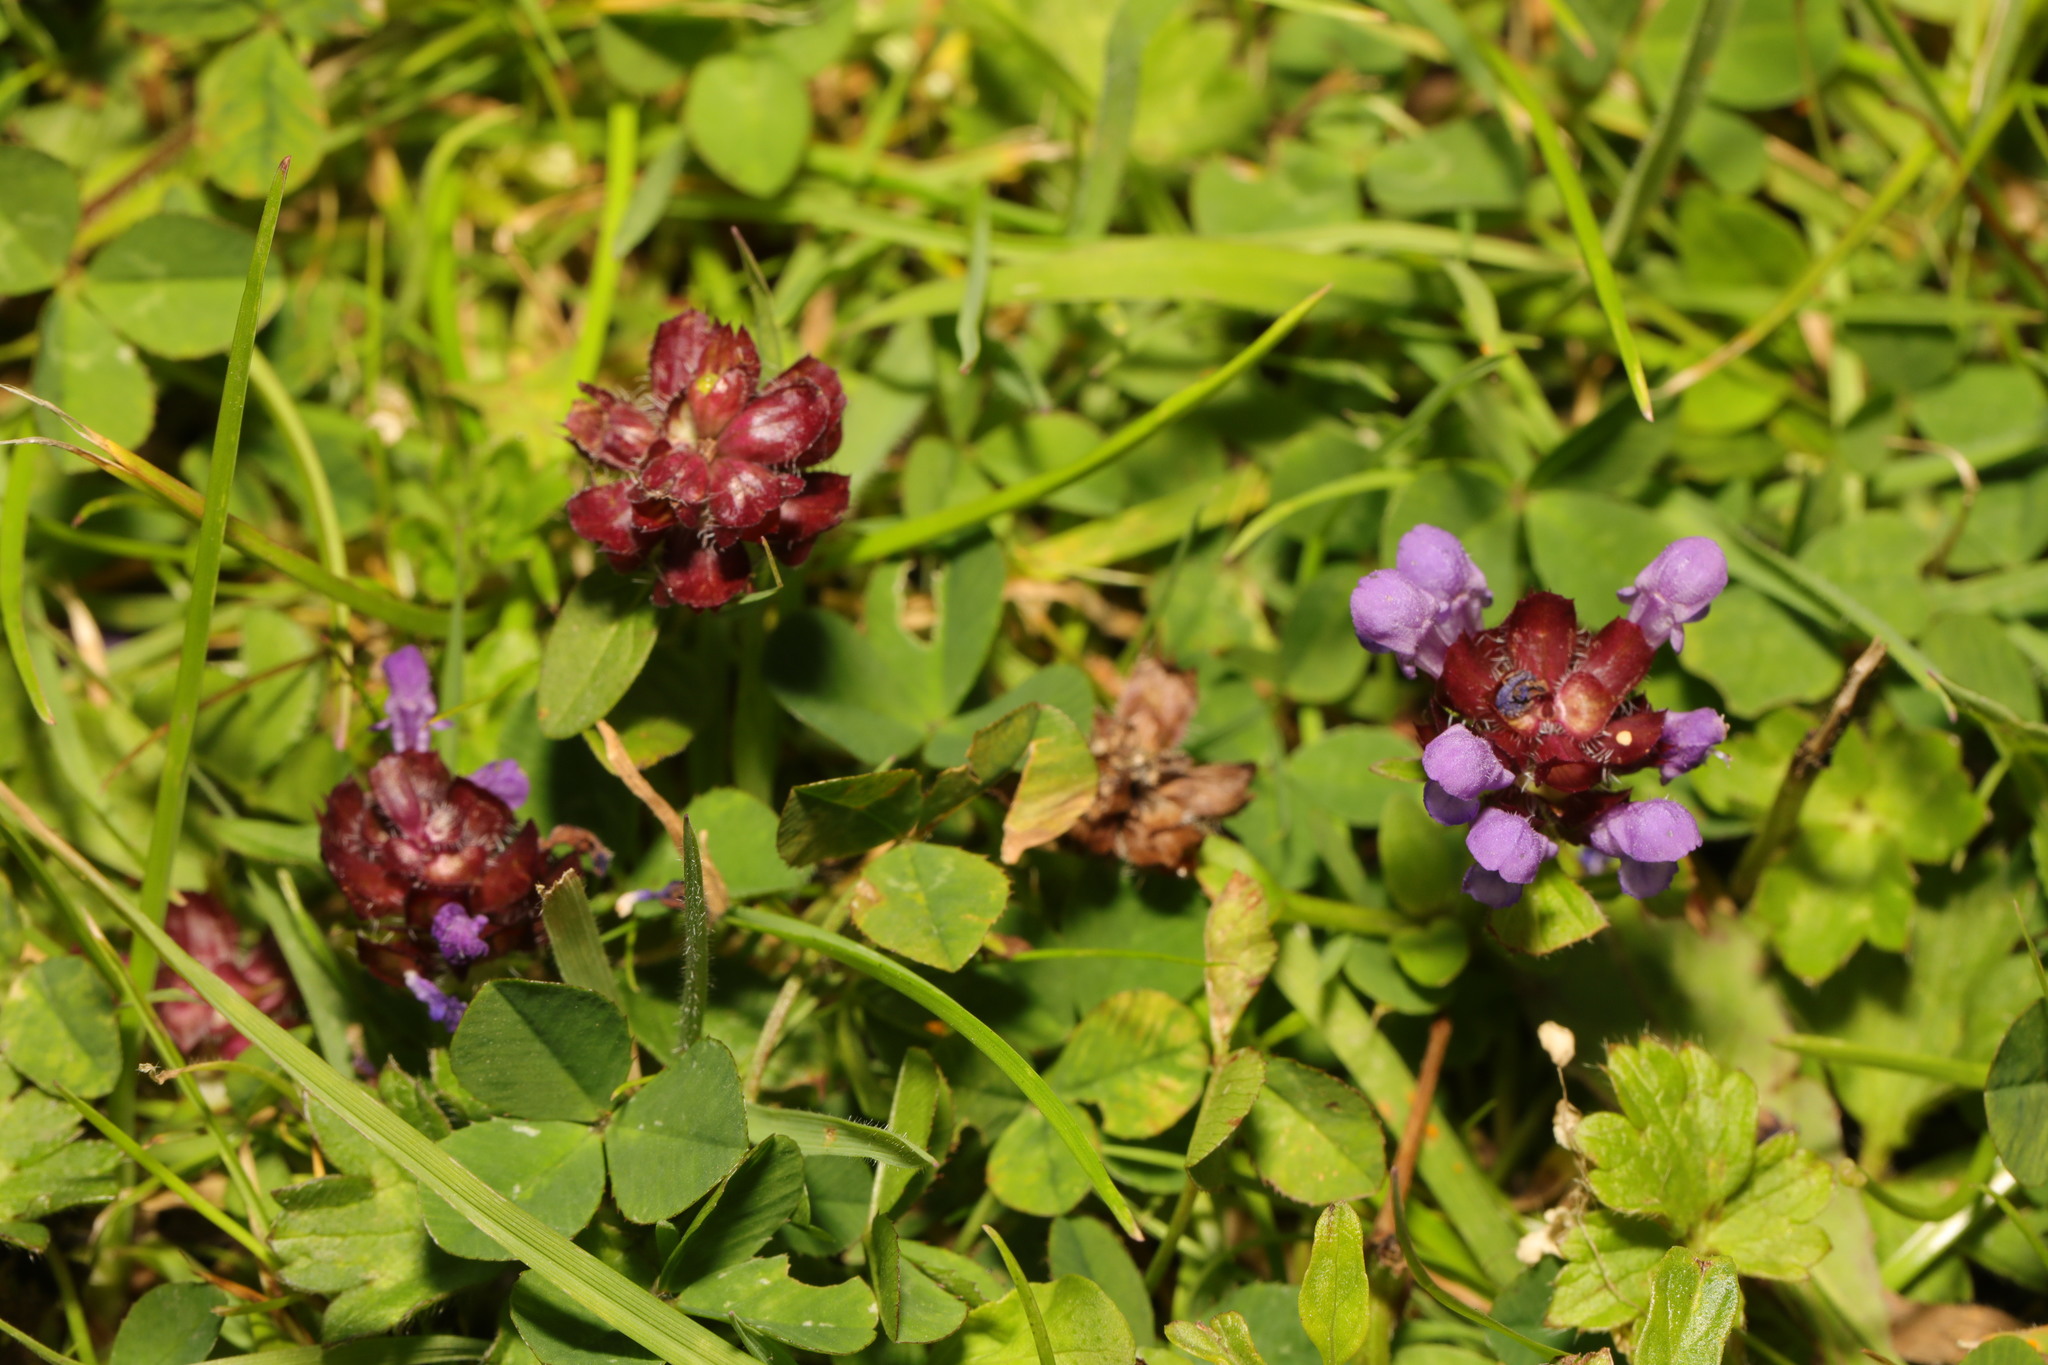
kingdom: Plantae
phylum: Tracheophyta
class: Magnoliopsida
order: Lamiales
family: Lamiaceae
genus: Prunella
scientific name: Prunella vulgaris
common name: Heal-all
